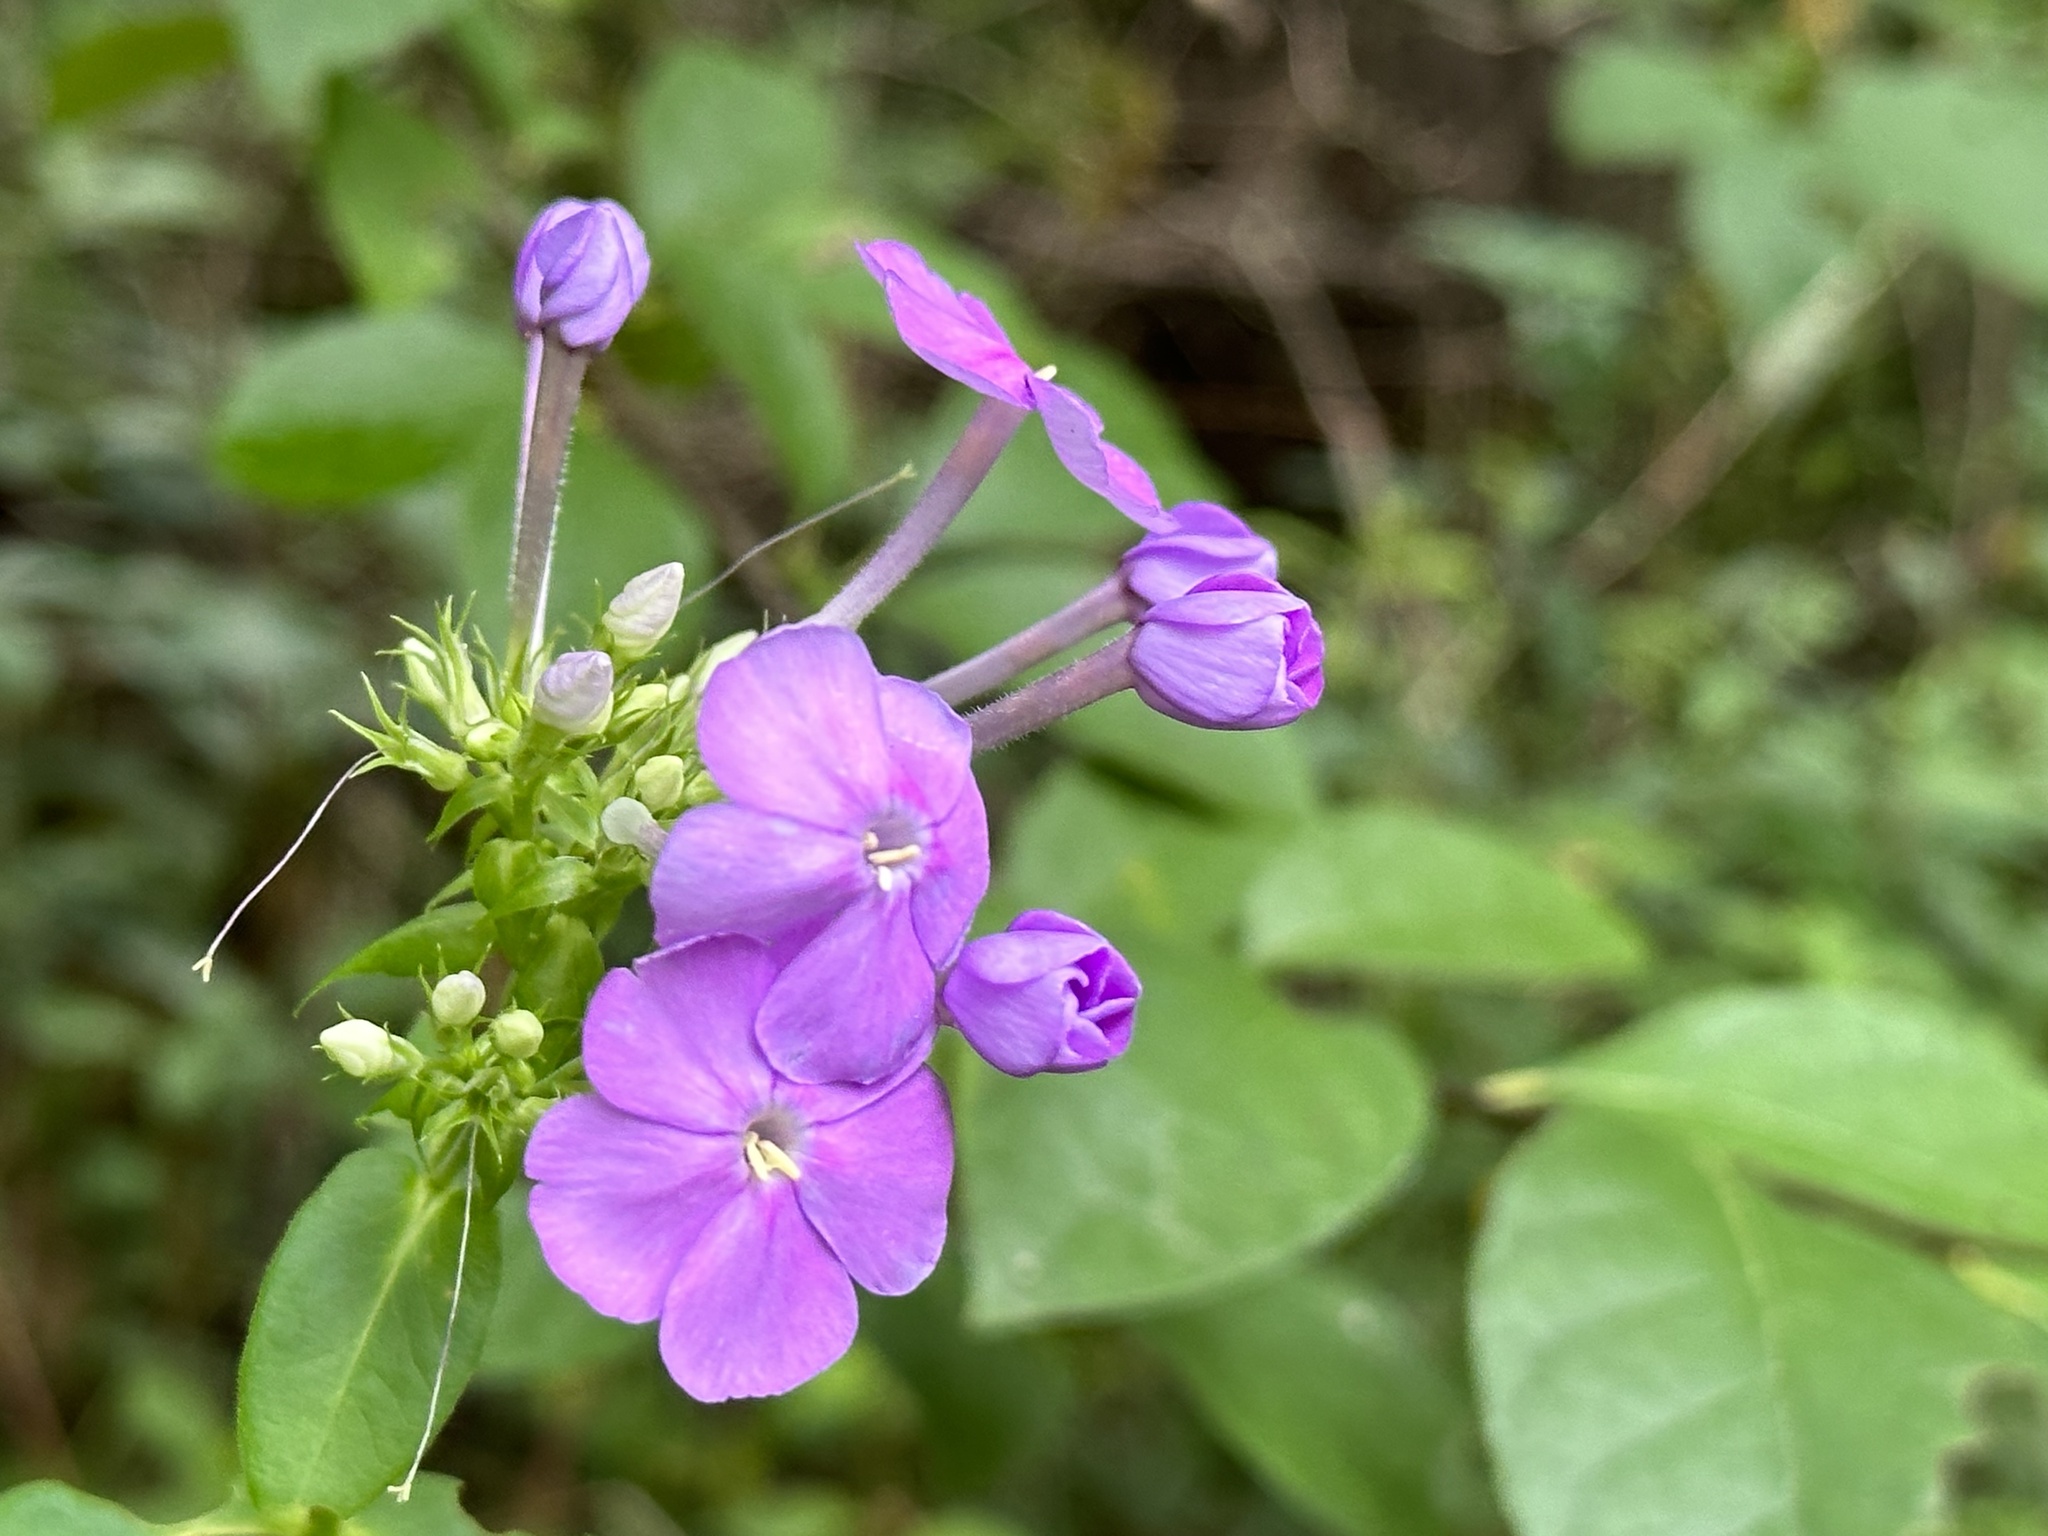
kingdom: Plantae
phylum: Tracheophyta
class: Magnoliopsida
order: Ericales
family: Polemoniaceae
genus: Phlox
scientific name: Phlox paniculata
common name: Fall phlox
